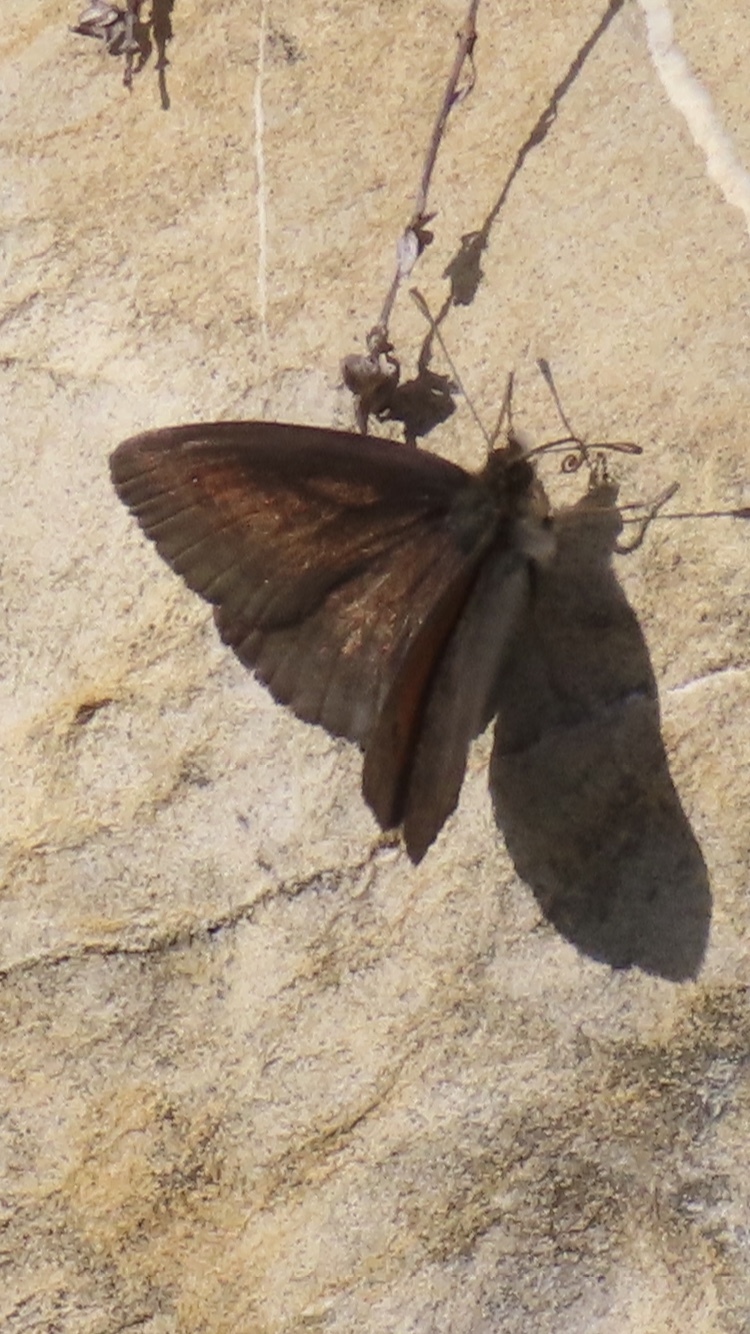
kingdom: Animalia
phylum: Arthropoda
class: Insecta
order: Lepidoptera
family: Nymphalidae
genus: Erebia
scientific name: Erebia pronoe
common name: Water ringlet
